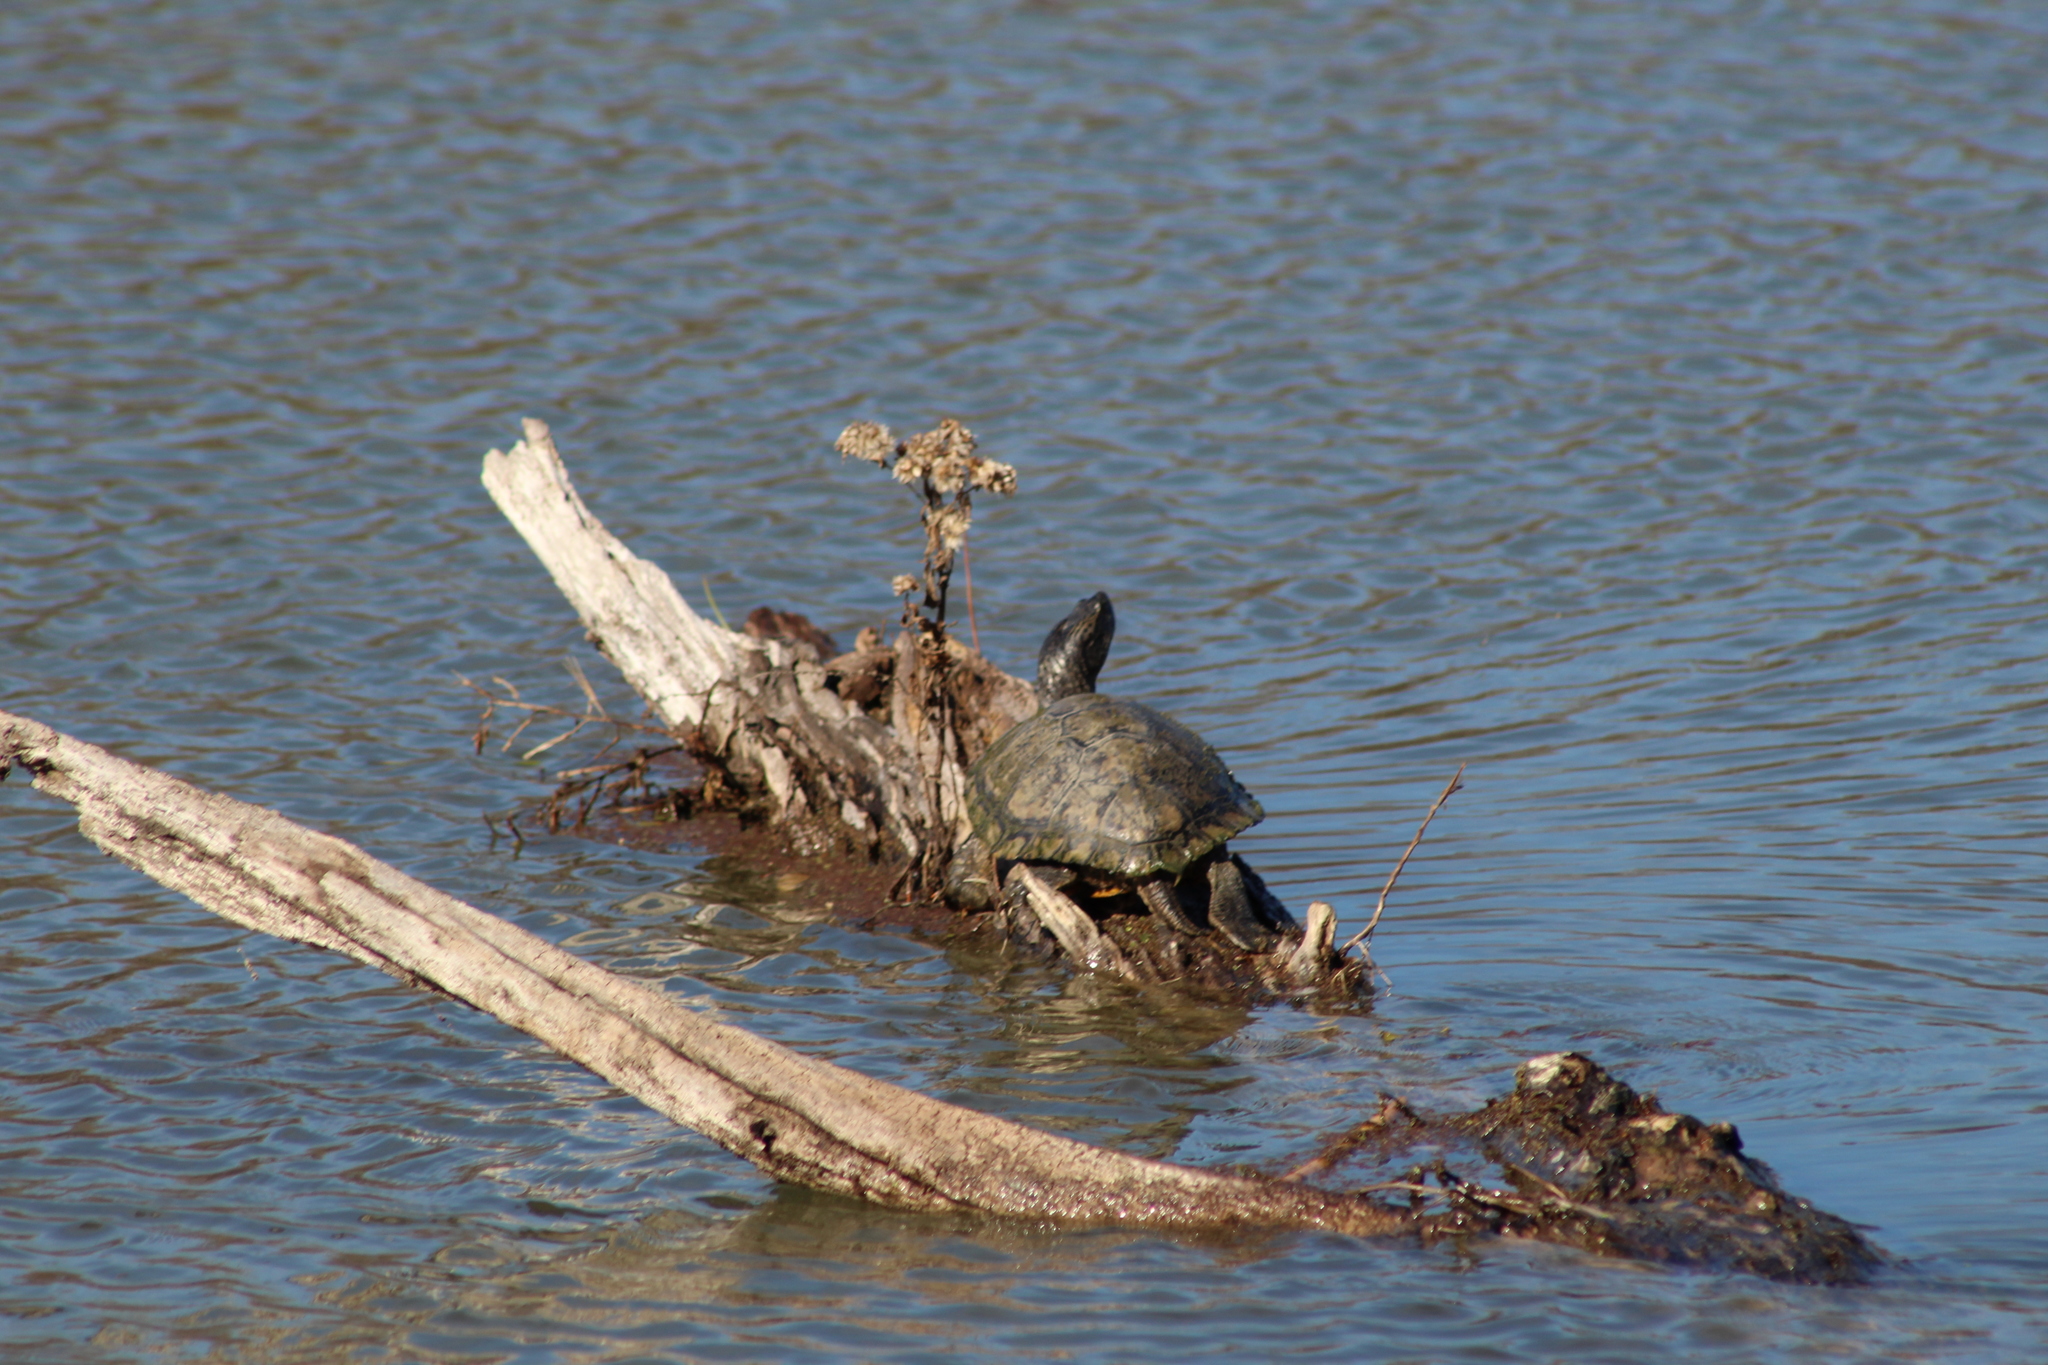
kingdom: Animalia
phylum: Chordata
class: Testudines
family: Emydidae
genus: Trachemys
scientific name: Trachemys scripta
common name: Slider
